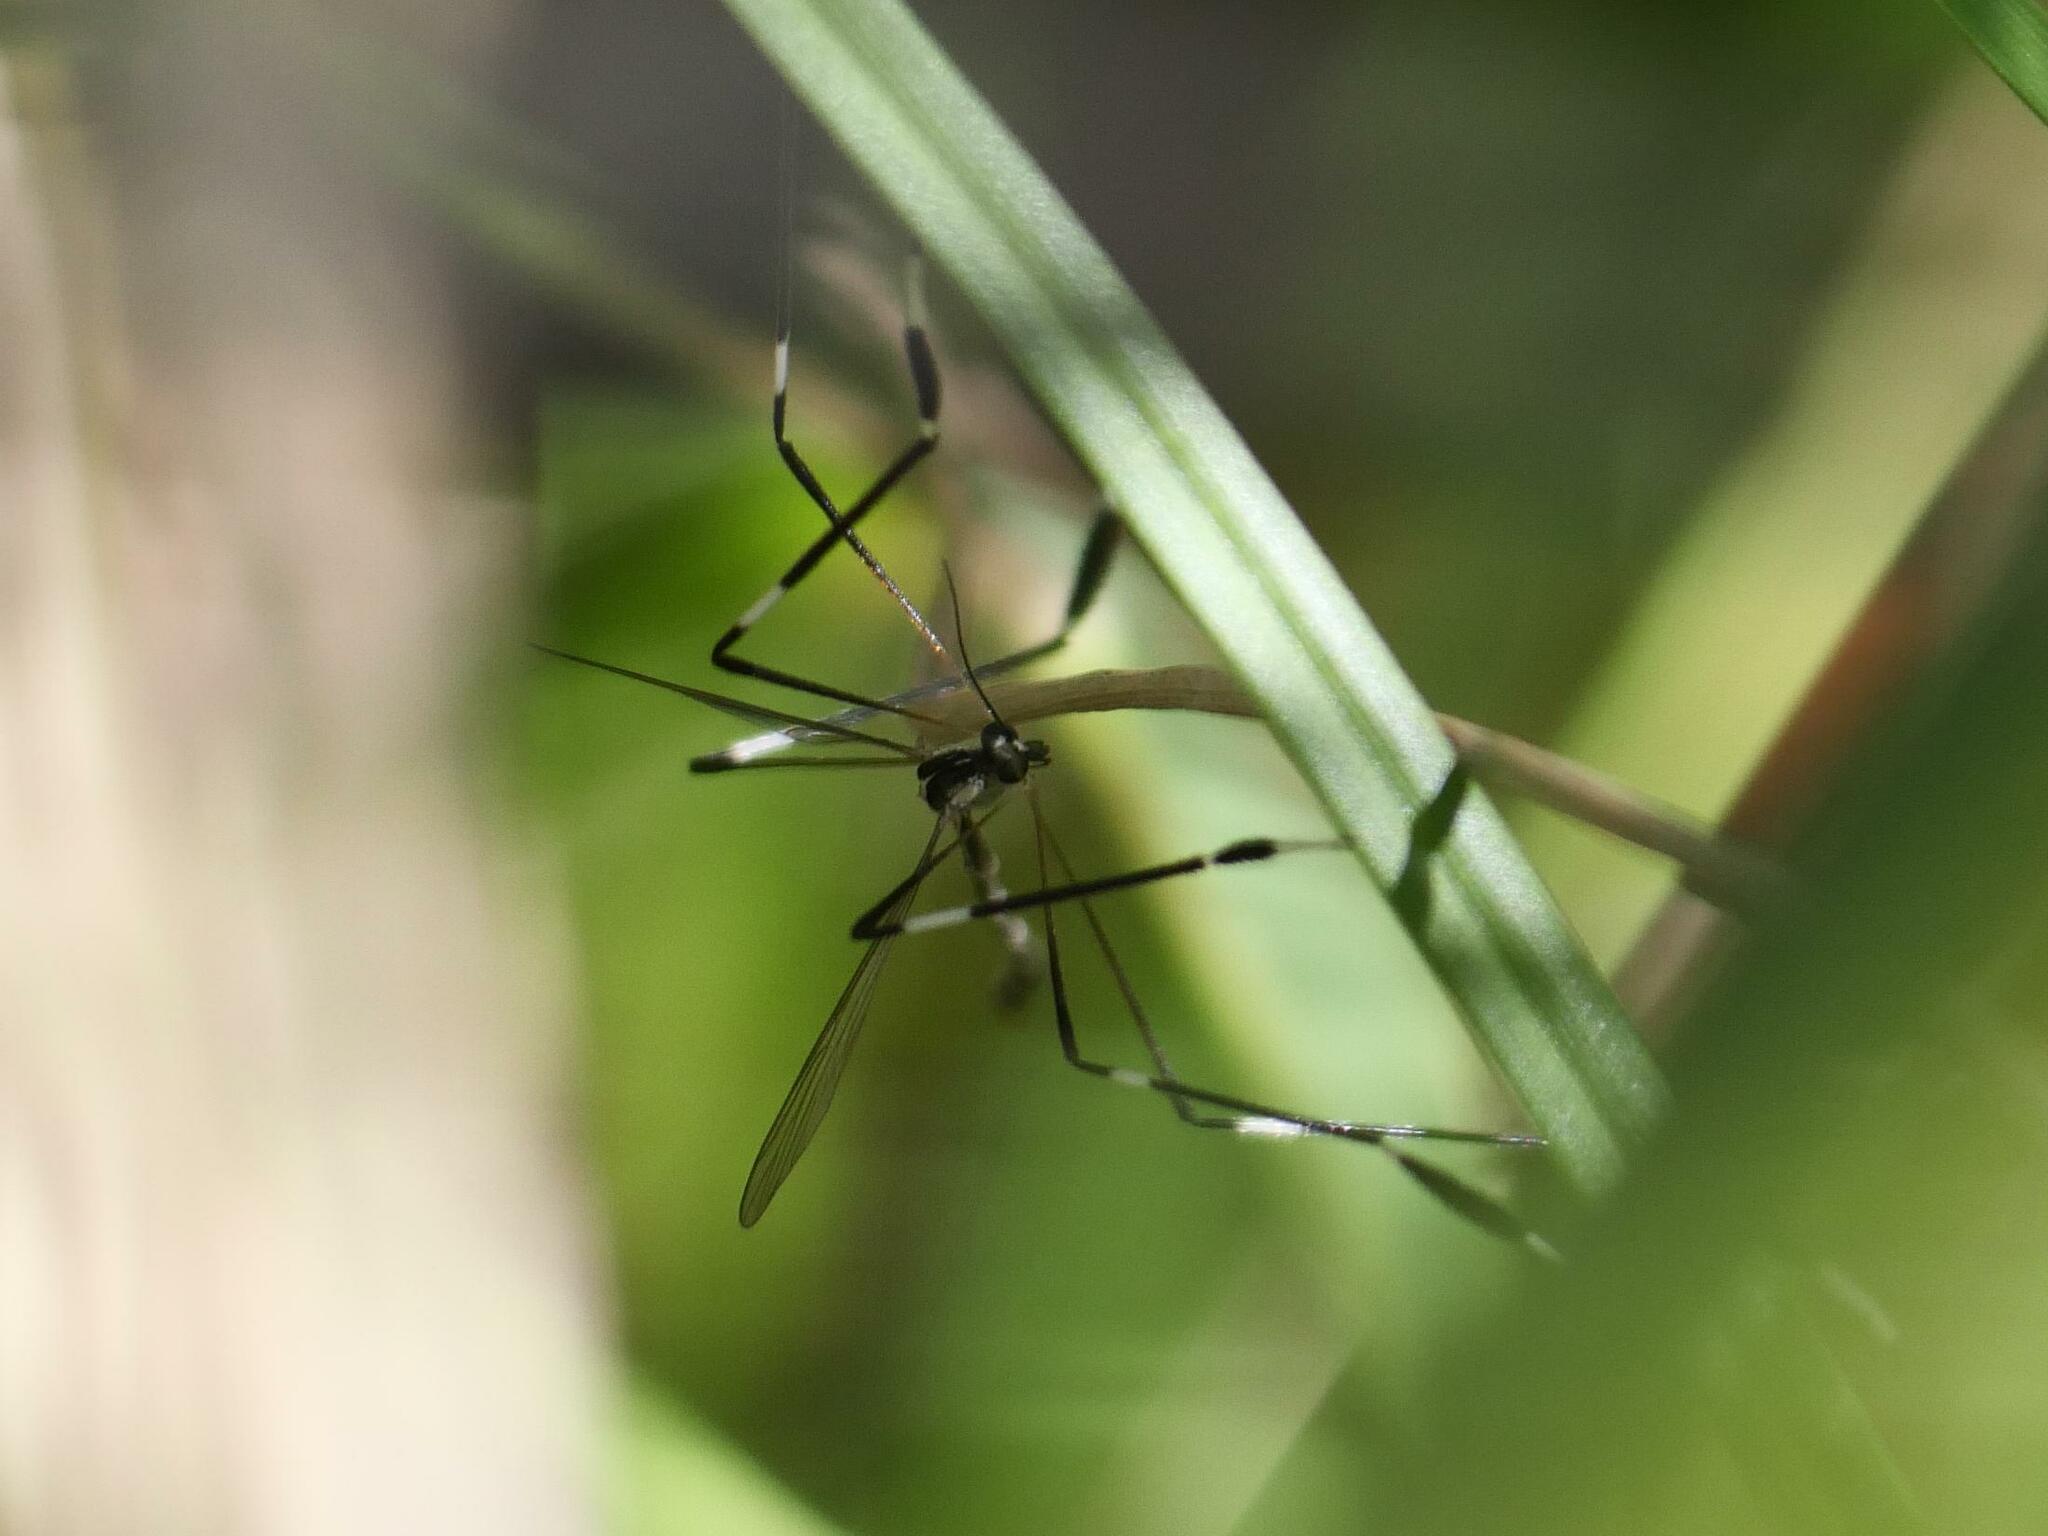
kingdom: Animalia
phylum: Arthropoda
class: Insecta
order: Diptera
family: Ptychopteridae
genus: Bittacomorpha
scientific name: Bittacomorpha clavipes
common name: Eastern phantom crane fly
